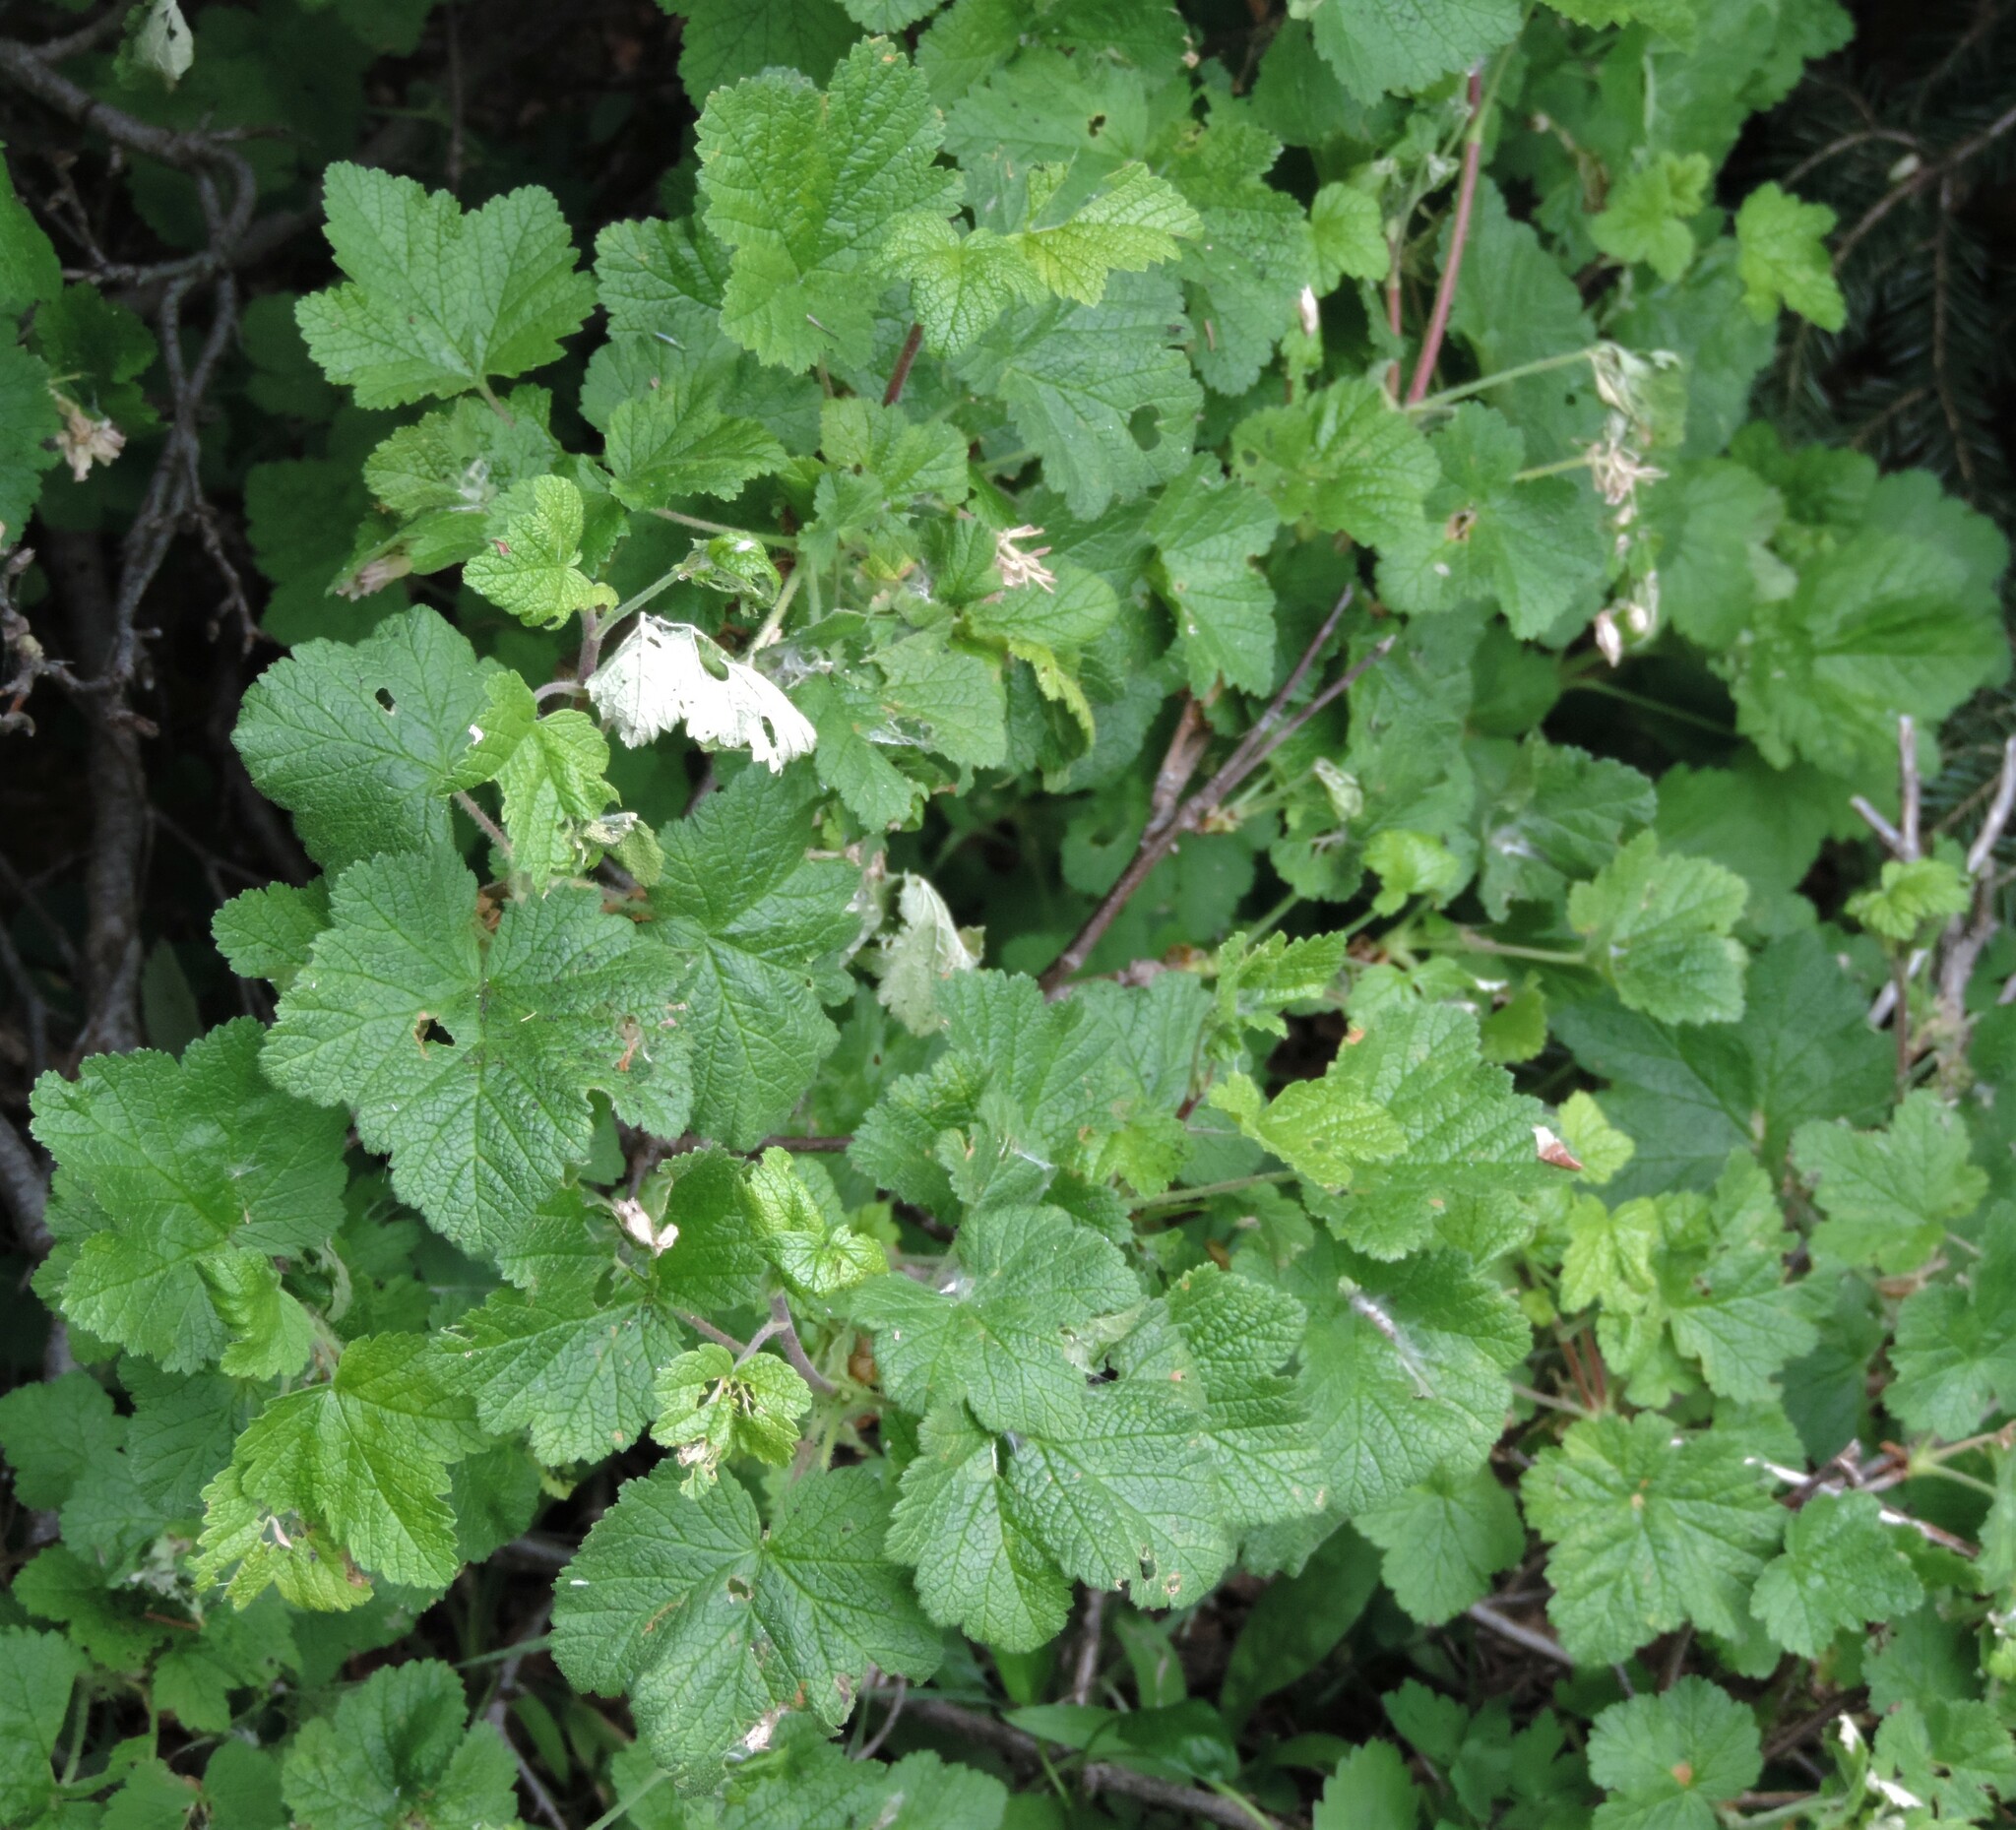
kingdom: Plantae
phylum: Tracheophyta
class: Magnoliopsida
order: Saxifragales
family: Grossulariaceae
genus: Ribes
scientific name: Ribes viscosissimum
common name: Sticky currant
